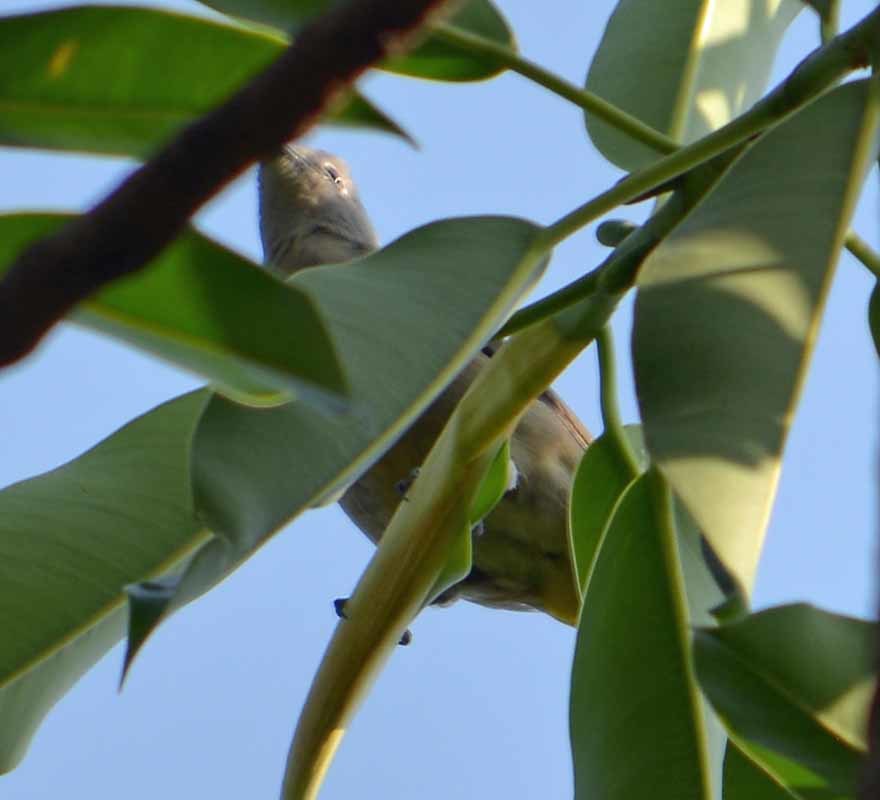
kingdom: Animalia
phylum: Chordata
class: Aves
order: Passeriformes
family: Ptilogonatidae
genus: Ptilogonys
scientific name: Ptilogonys cinereus
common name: Gray silky-flycatcher
